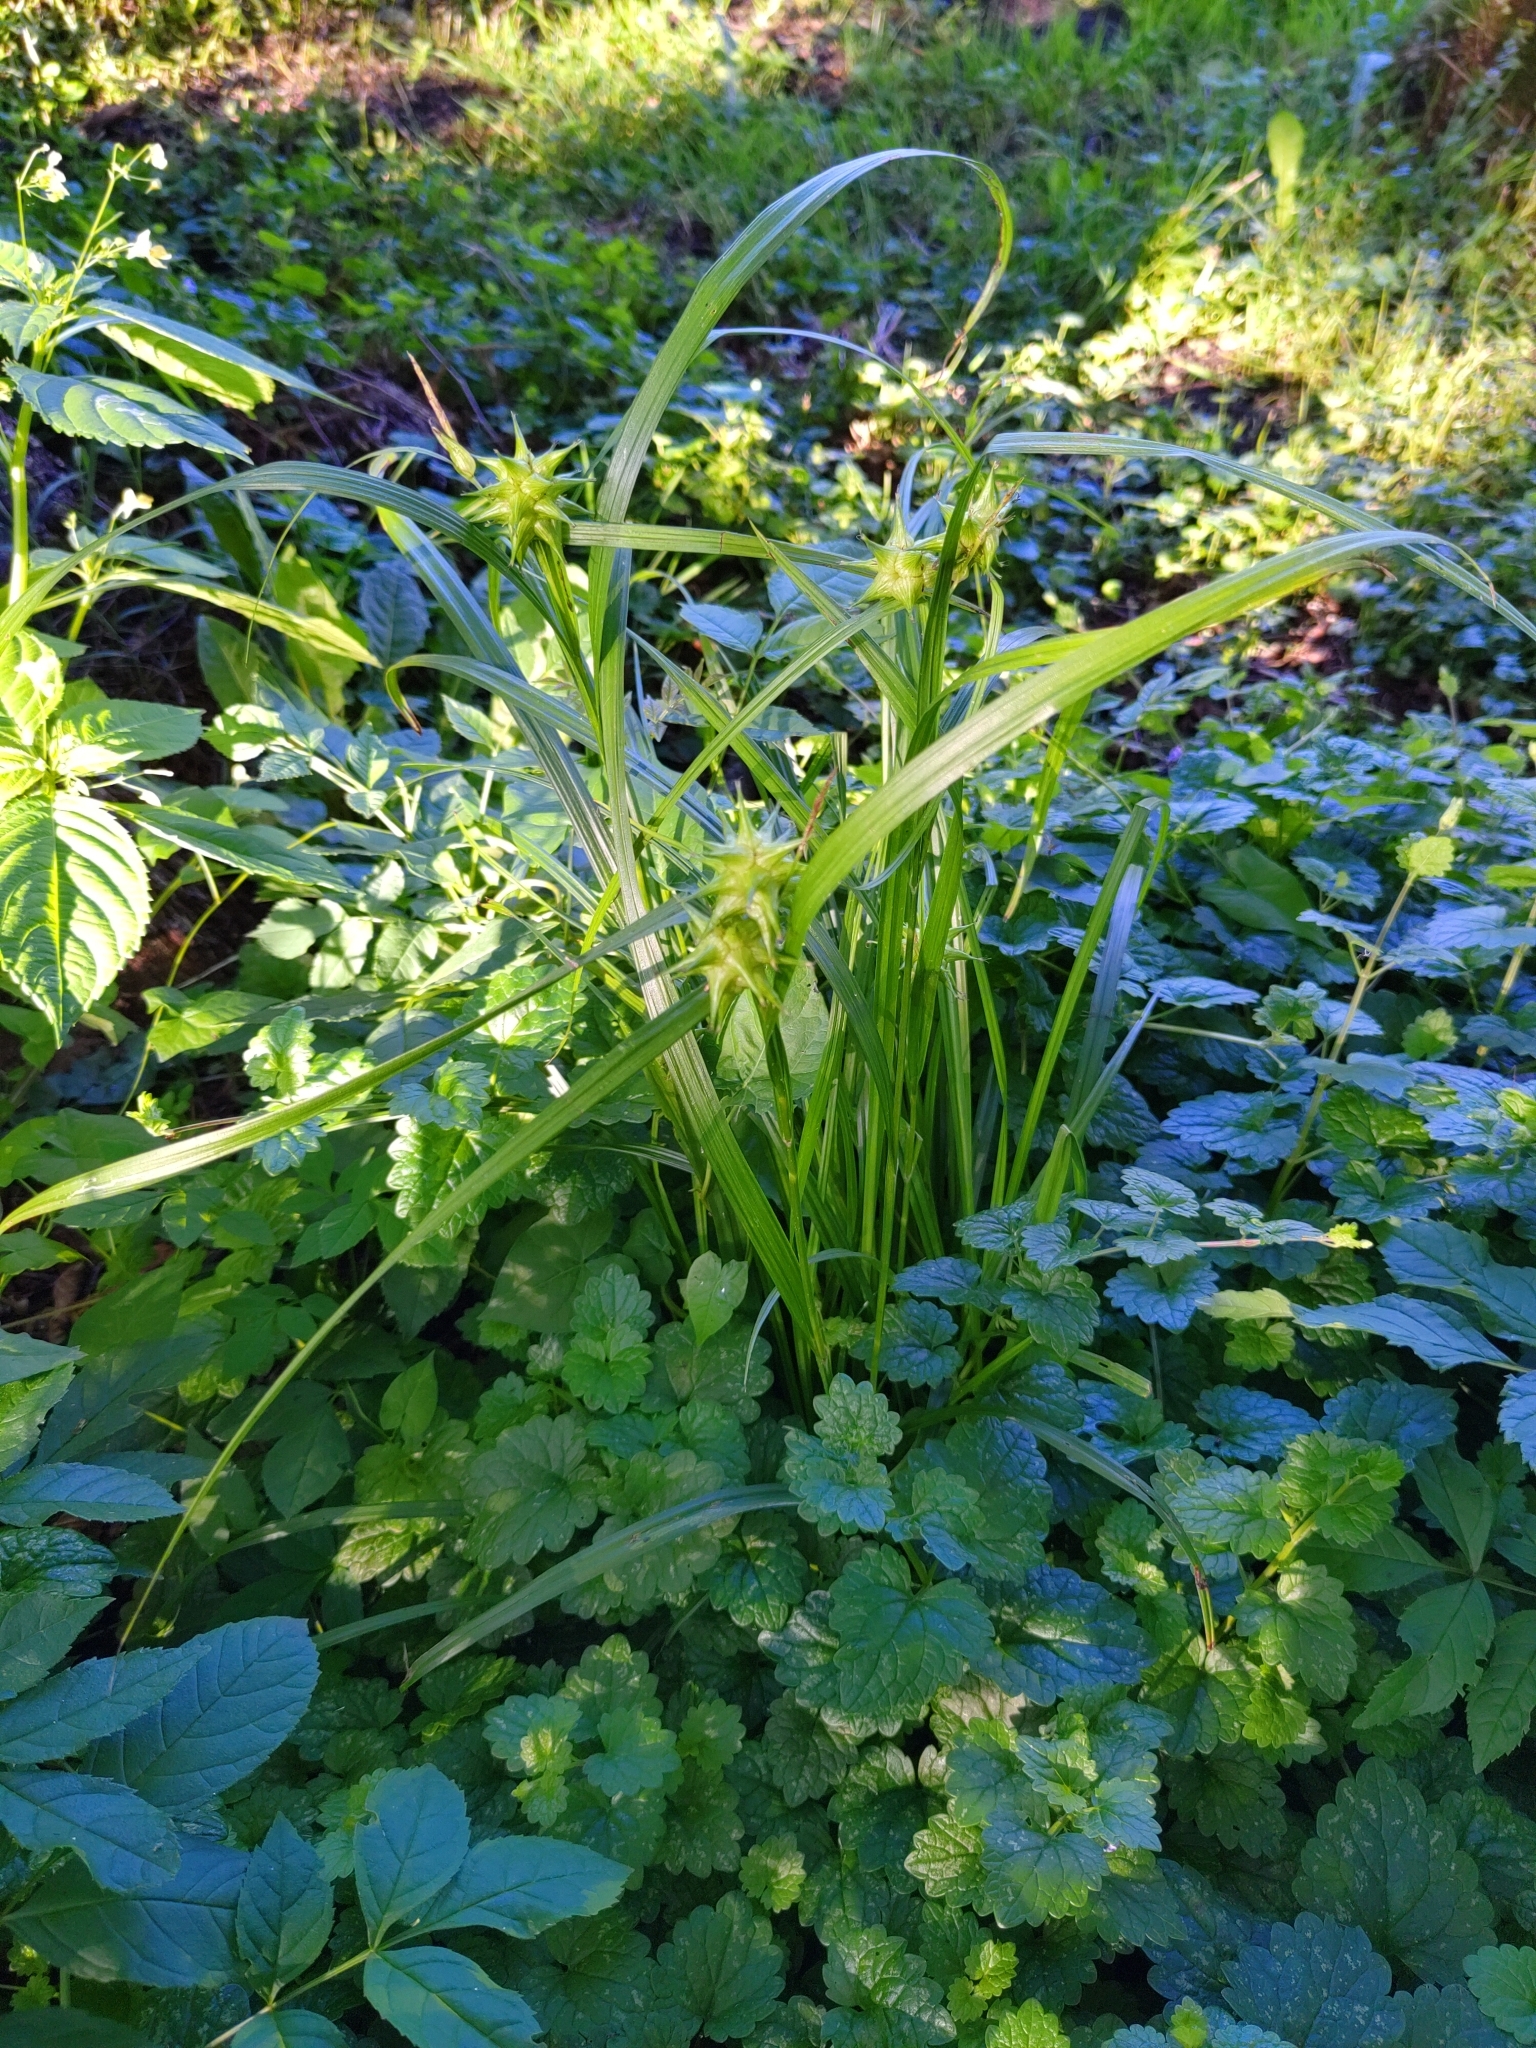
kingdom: Plantae
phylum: Tracheophyta
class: Liliopsida
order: Poales
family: Cyperaceae
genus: Carex
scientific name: Carex grayi
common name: Asa gray's sedge
